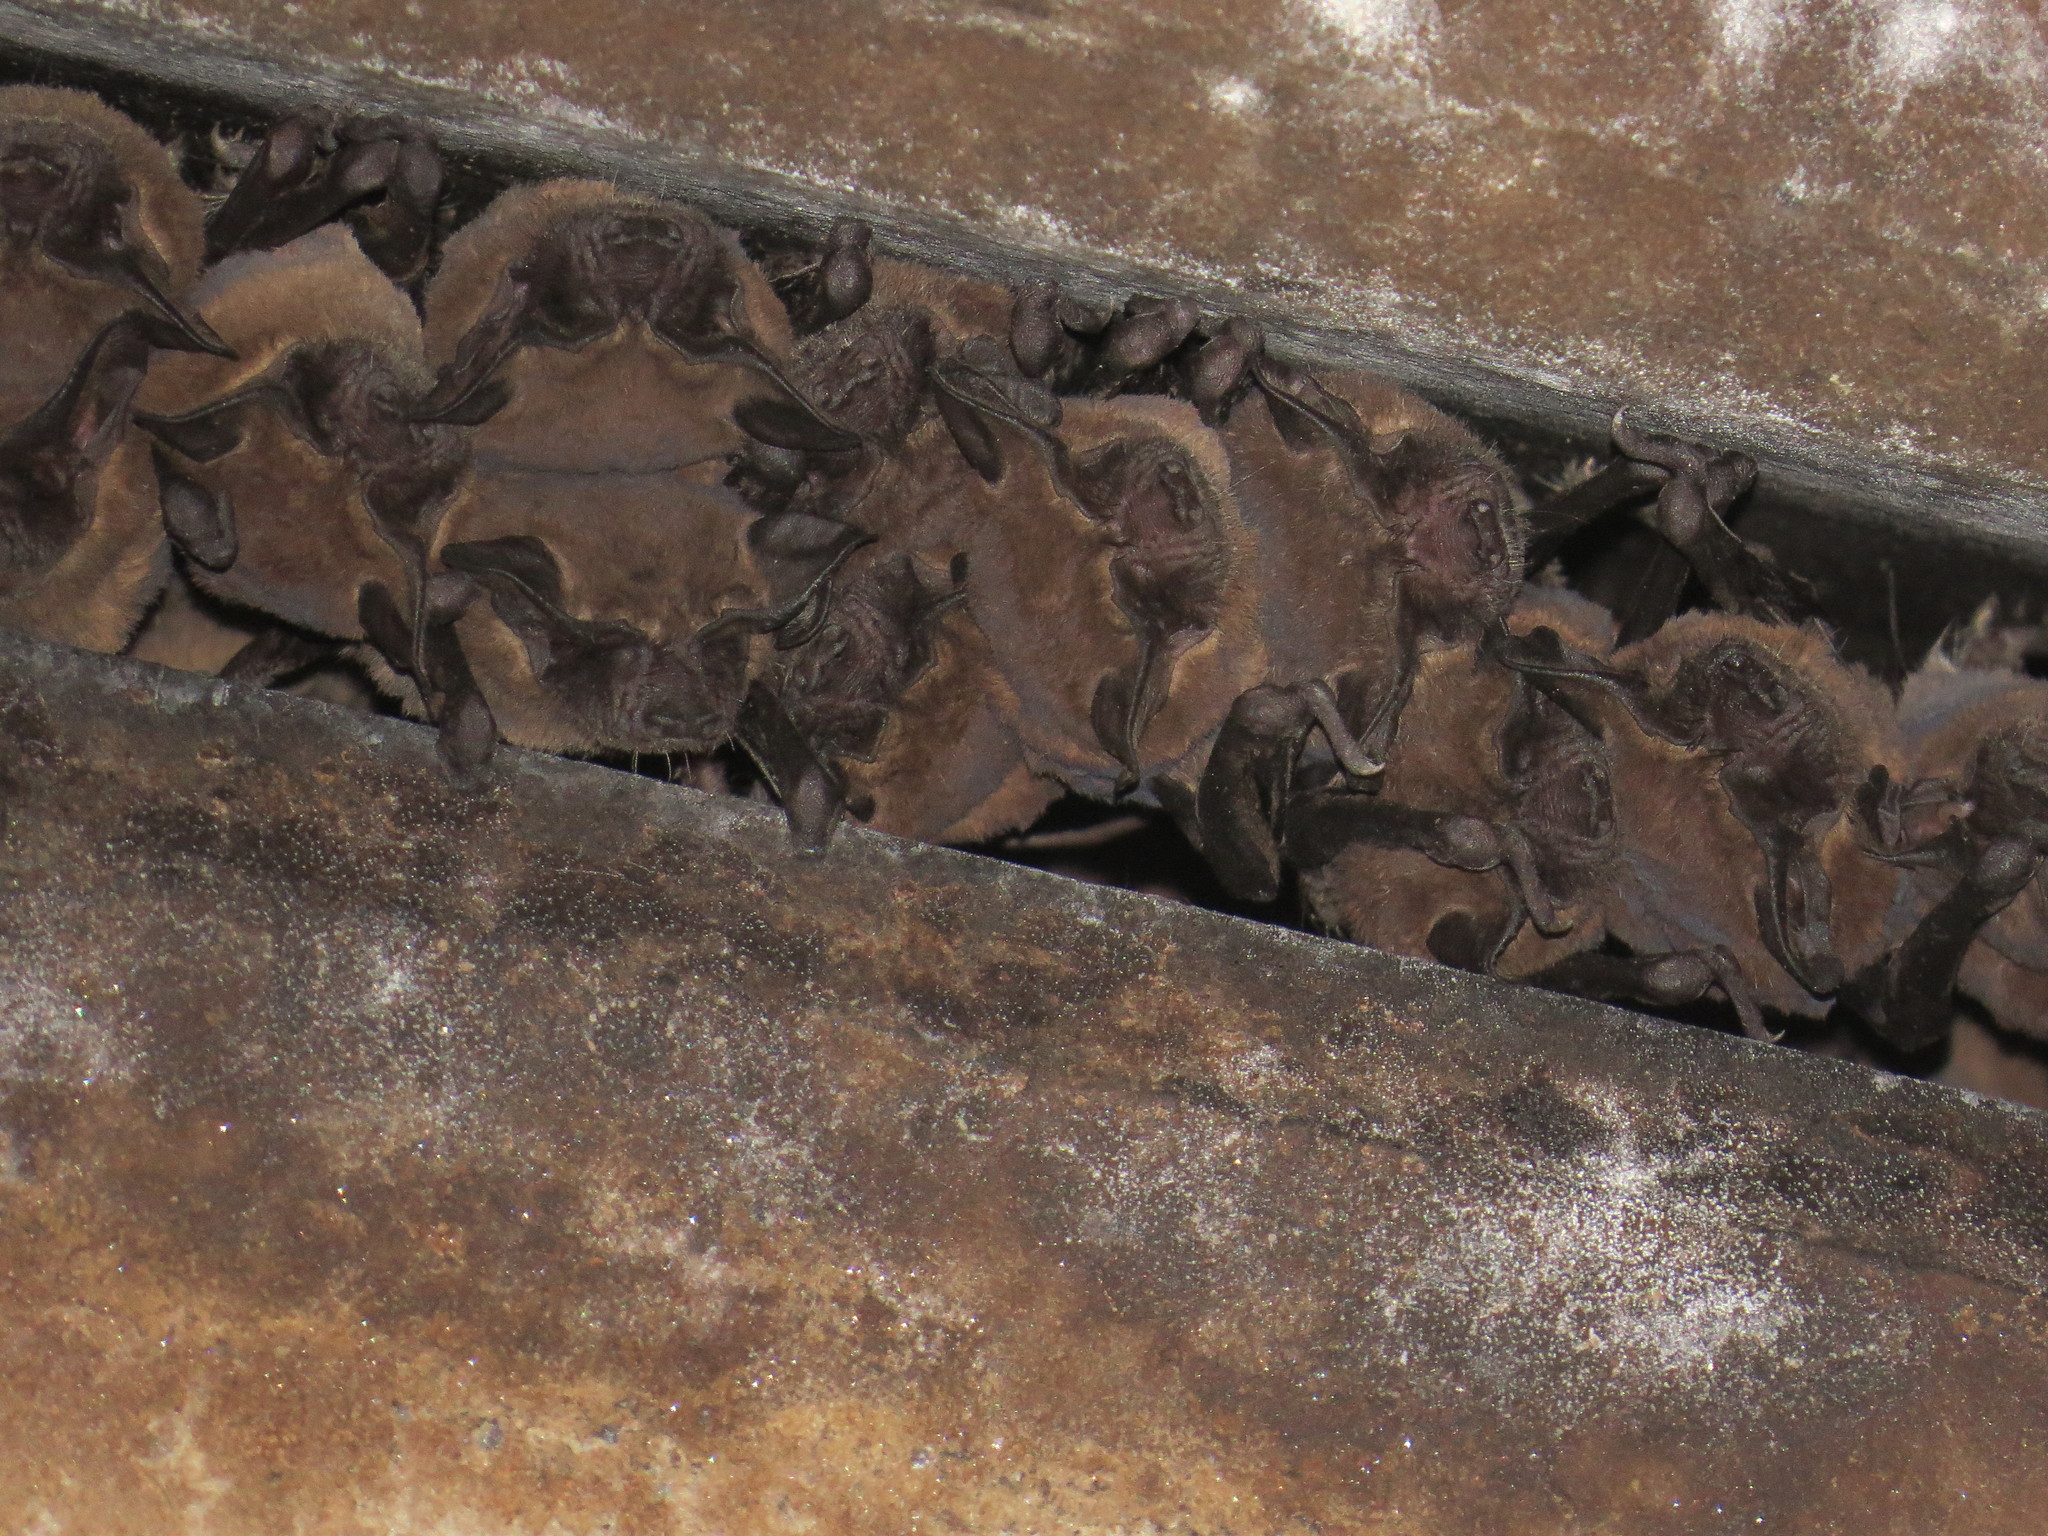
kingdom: Animalia
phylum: Chordata
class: Mammalia
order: Chiroptera
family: Molossidae
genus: Tadarida
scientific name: Tadarida brasiliensis
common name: Mexican free-tailed bat
